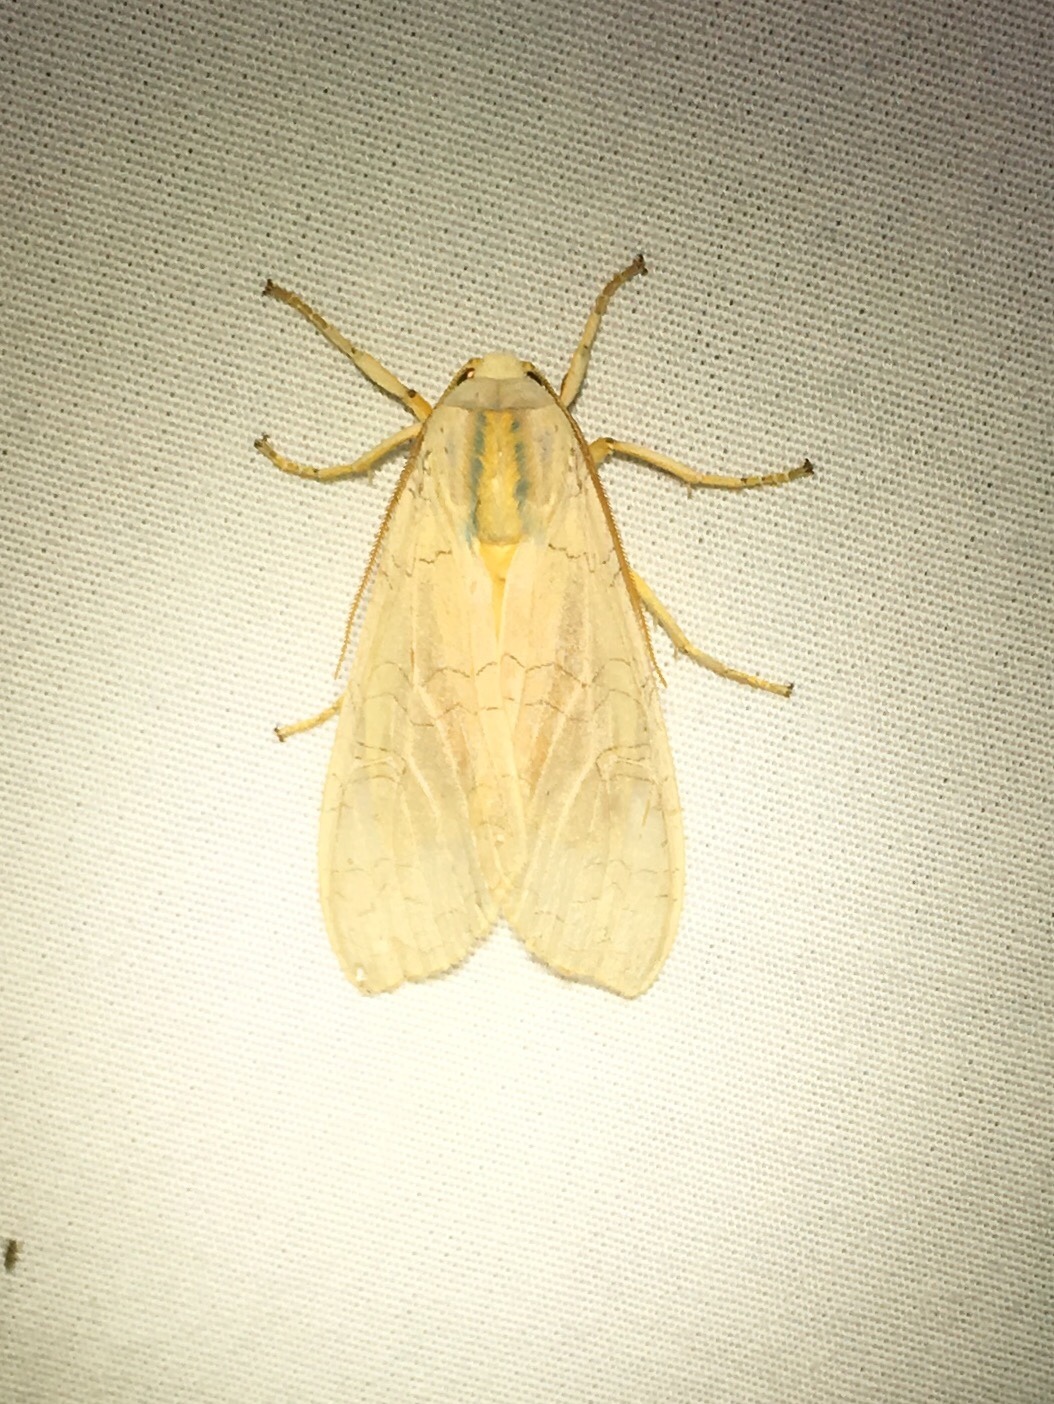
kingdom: Animalia
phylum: Arthropoda
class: Insecta
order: Lepidoptera
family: Erebidae
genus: Halysidota
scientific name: Halysidota tessellaris
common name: Banded tussock moth
